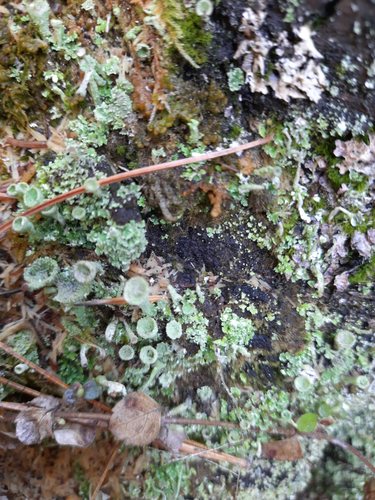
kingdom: Fungi
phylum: Ascomycota
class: Lecanoromycetes
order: Lecanorales
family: Cladoniaceae
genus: Cladonia
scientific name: Cladonia
